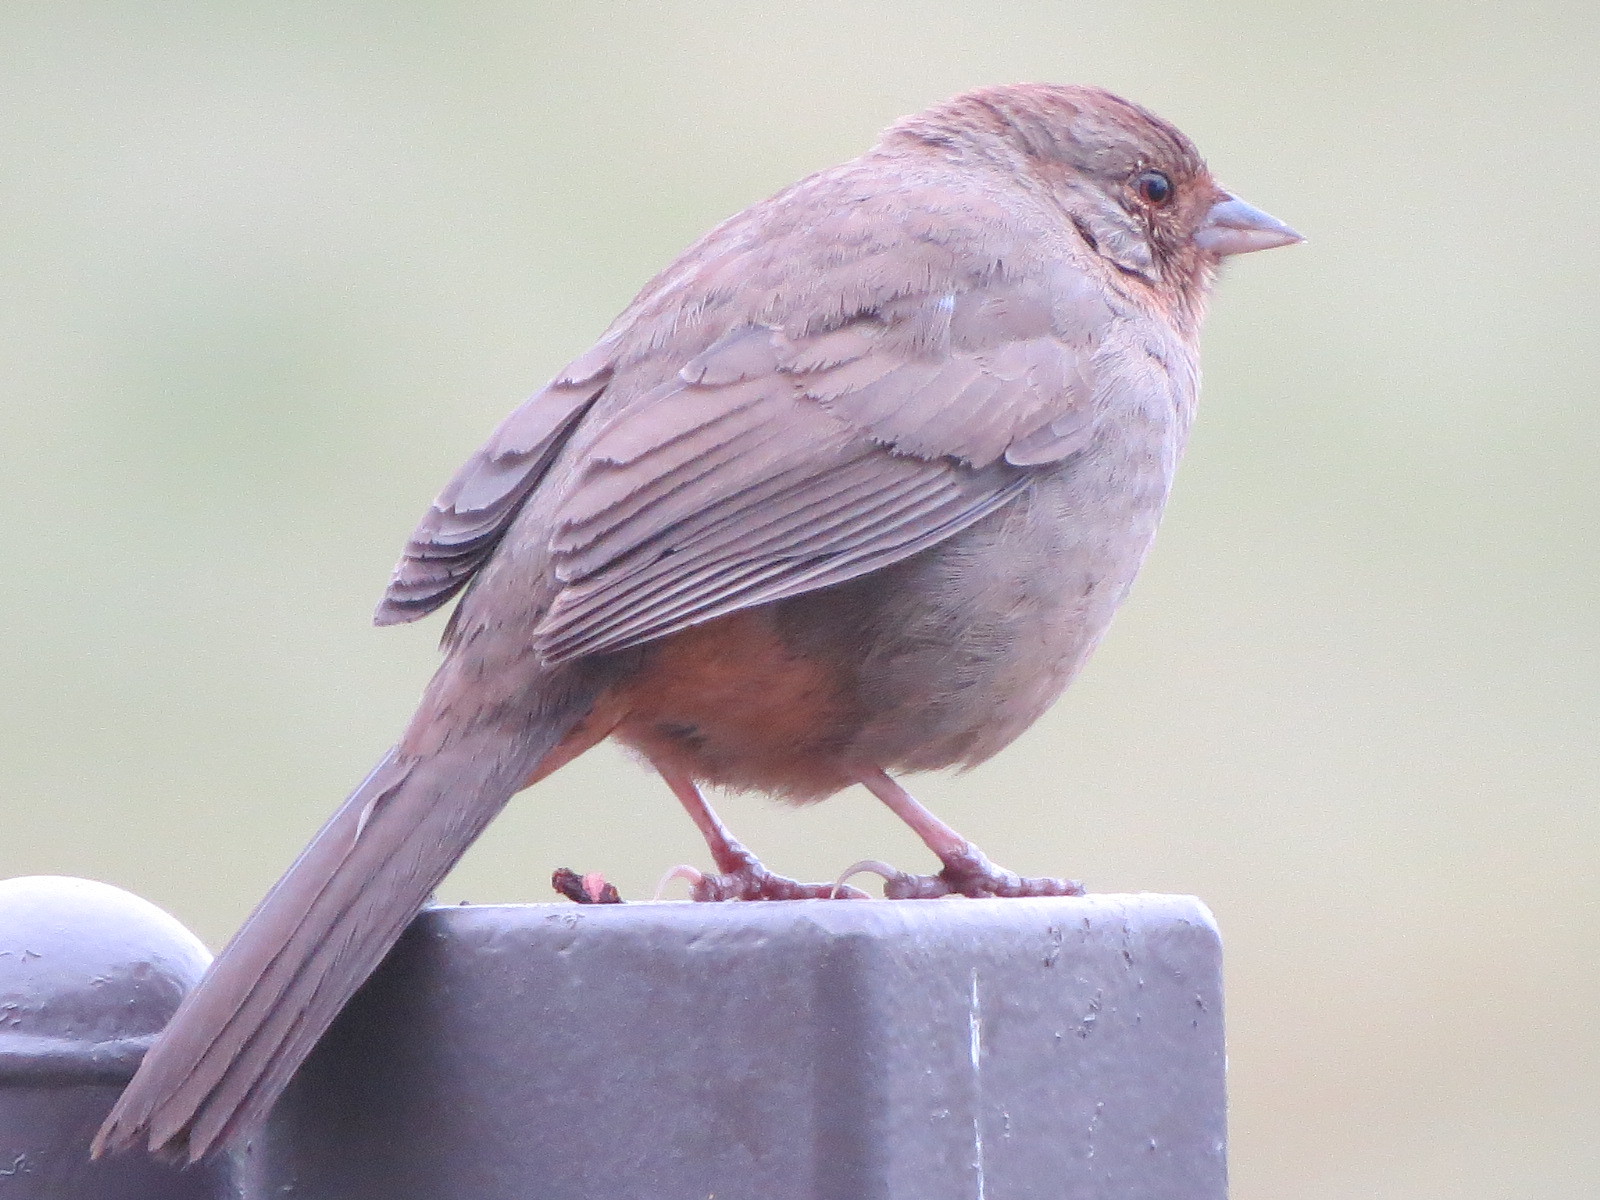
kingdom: Animalia
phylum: Chordata
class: Aves
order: Passeriformes
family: Passerellidae
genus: Melozone
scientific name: Melozone crissalis
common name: California towhee
